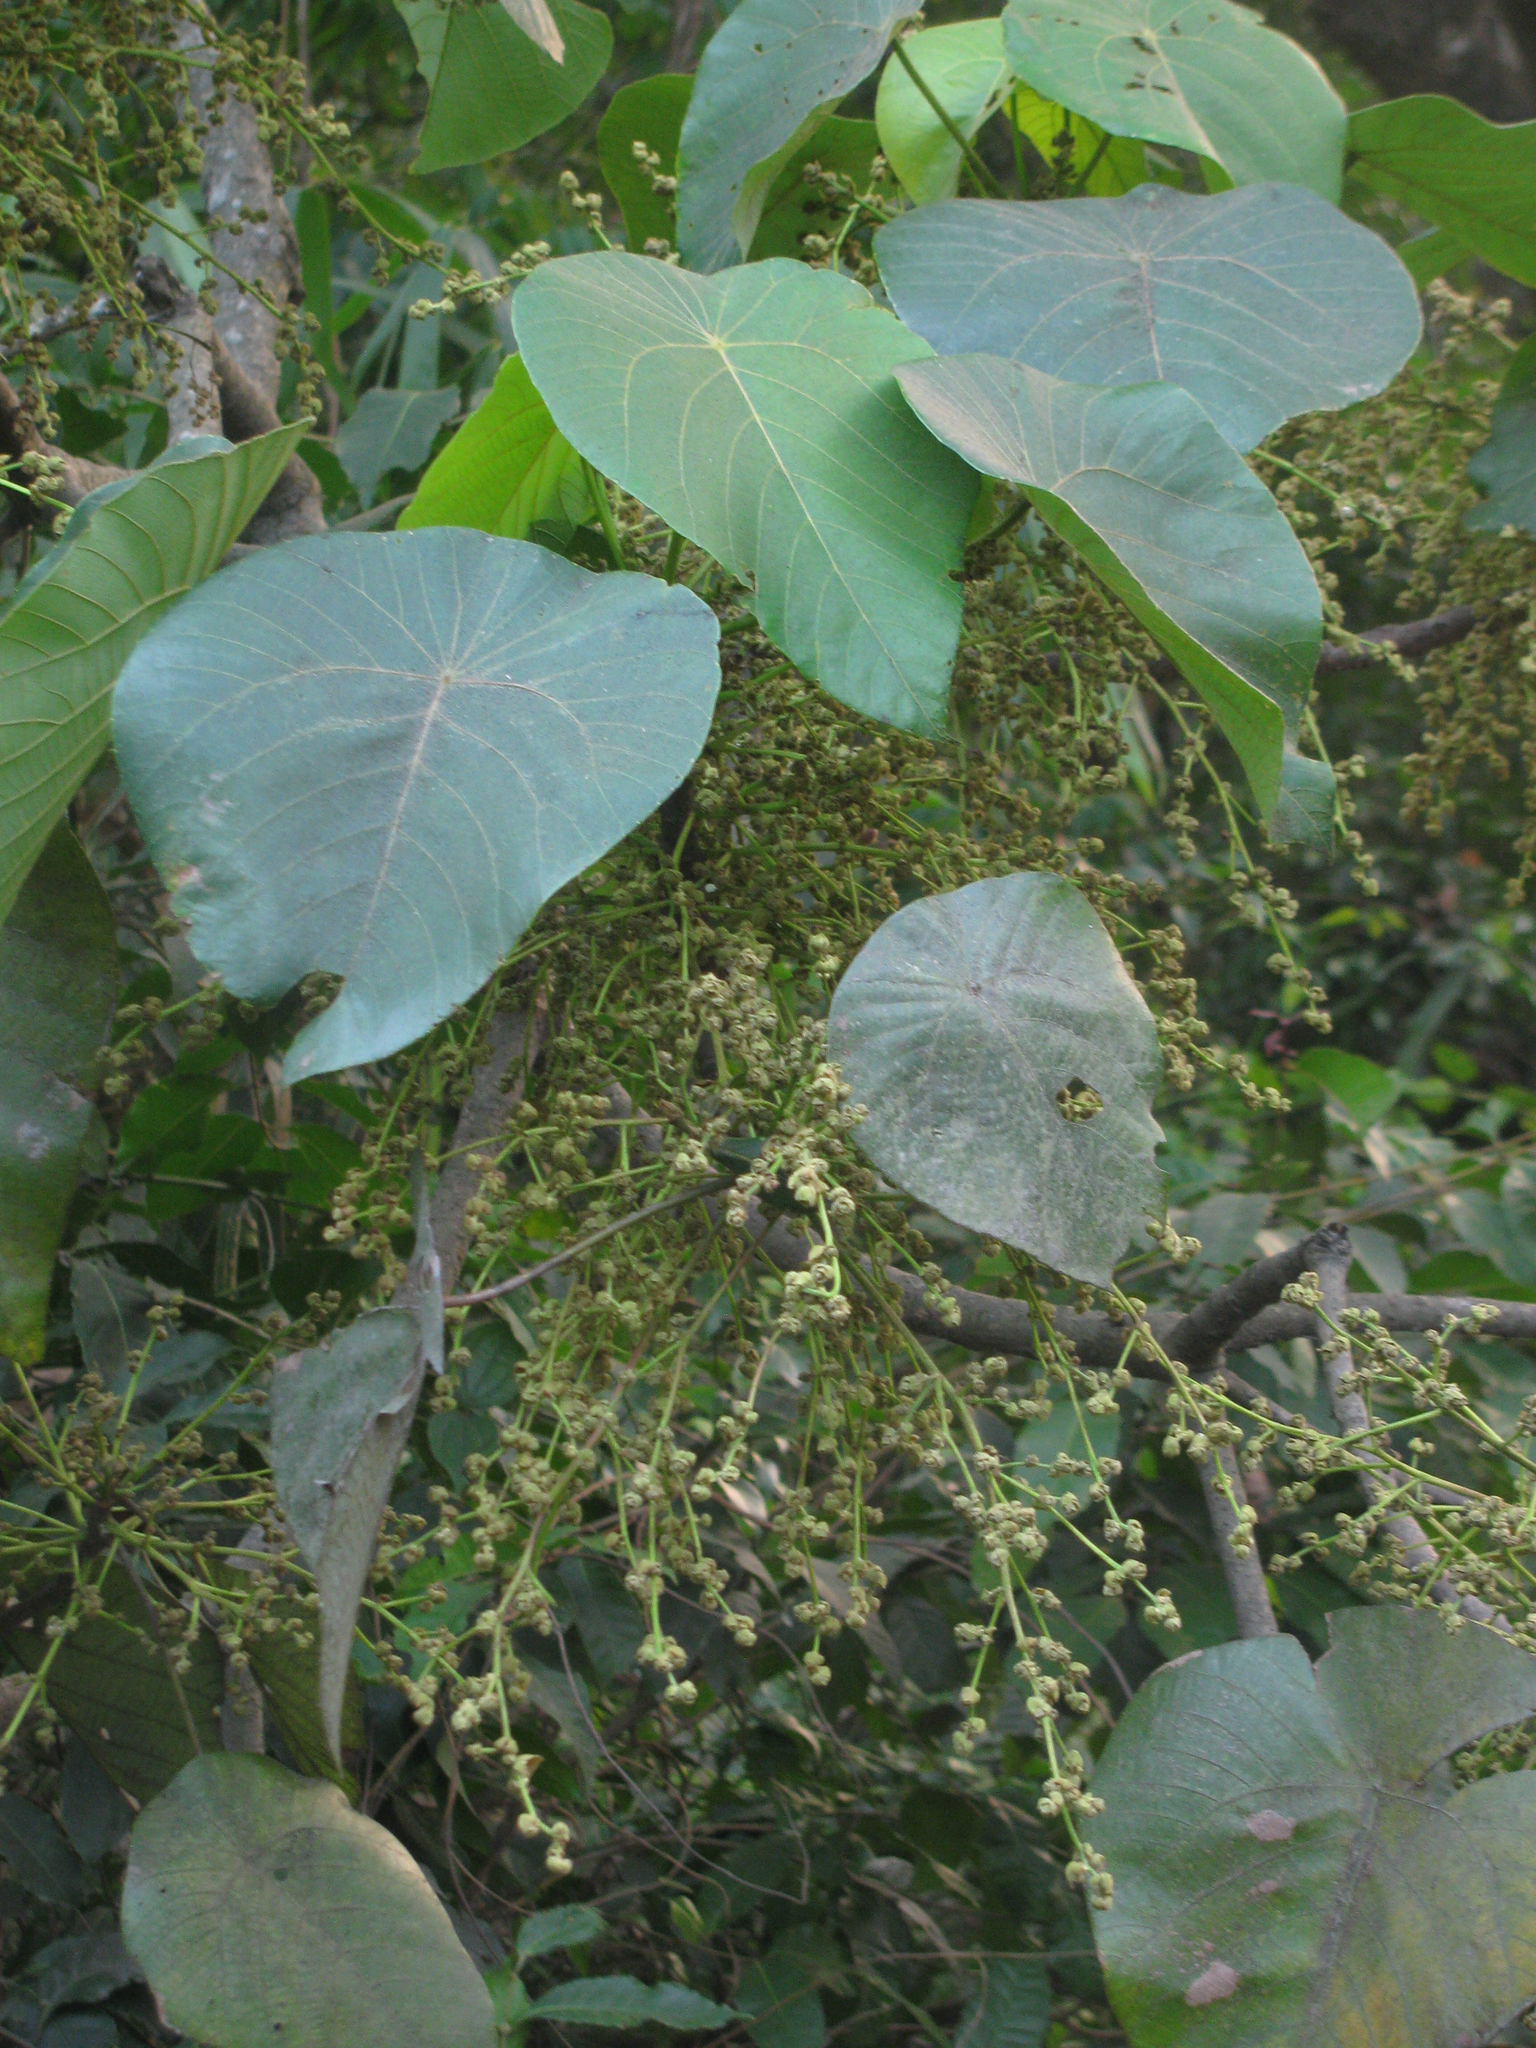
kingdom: Plantae
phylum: Tracheophyta
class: Magnoliopsida
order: Malpighiales
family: Euphorbiaceae
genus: Macaranga
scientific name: Macaranga peltata
